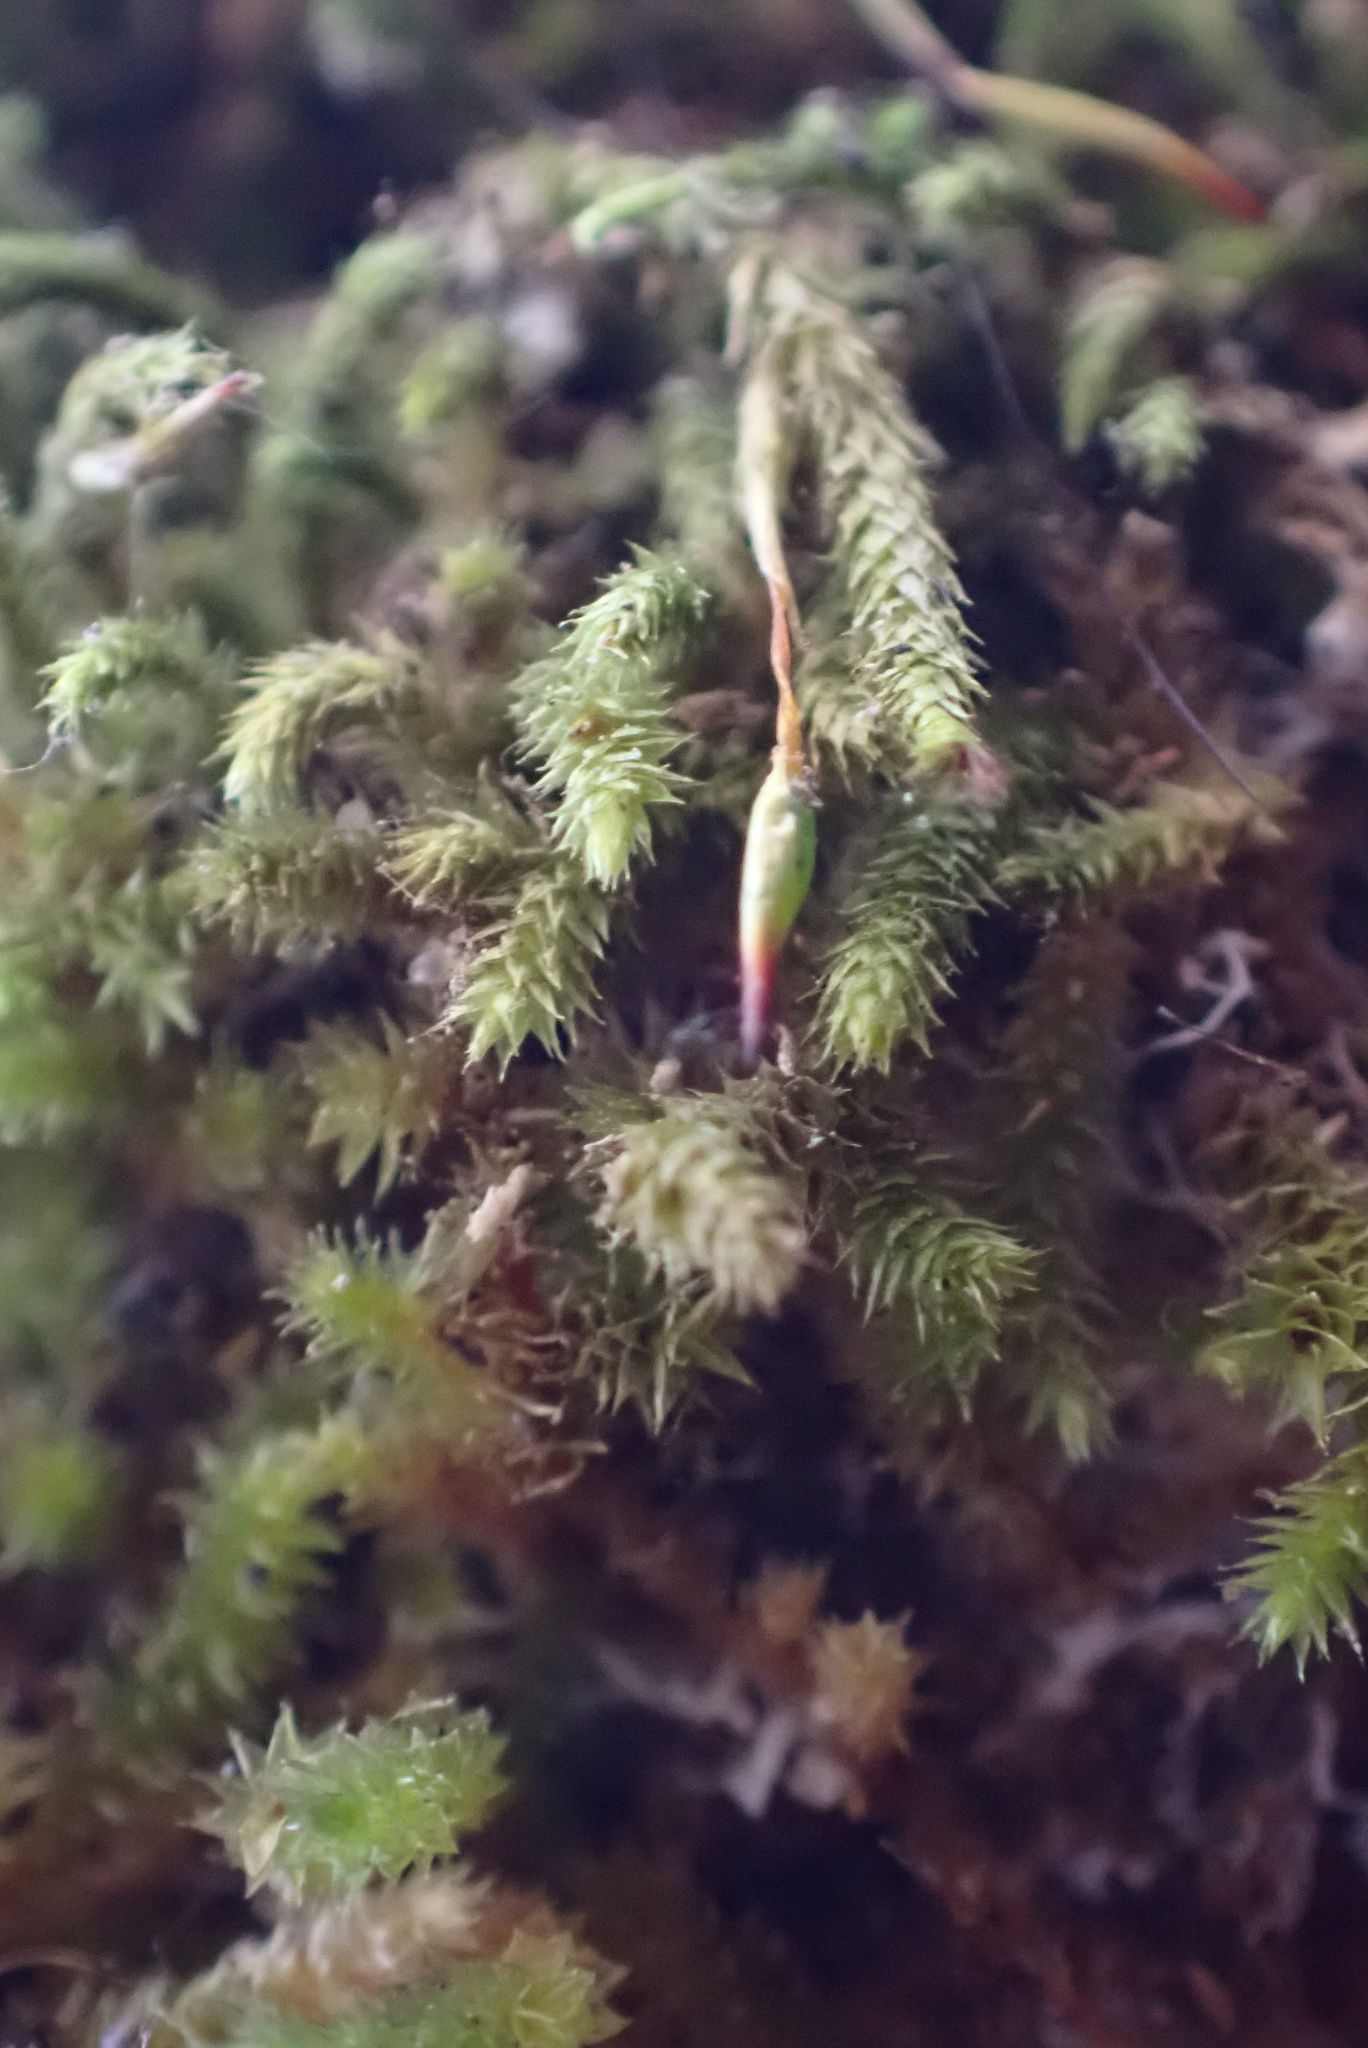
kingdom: Plantae
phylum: Bryophyta
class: Bryopsida
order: Hypnales
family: Leucodontaceae
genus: Leucodon
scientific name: Leucodon julaceus
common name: Smooth hook moss
